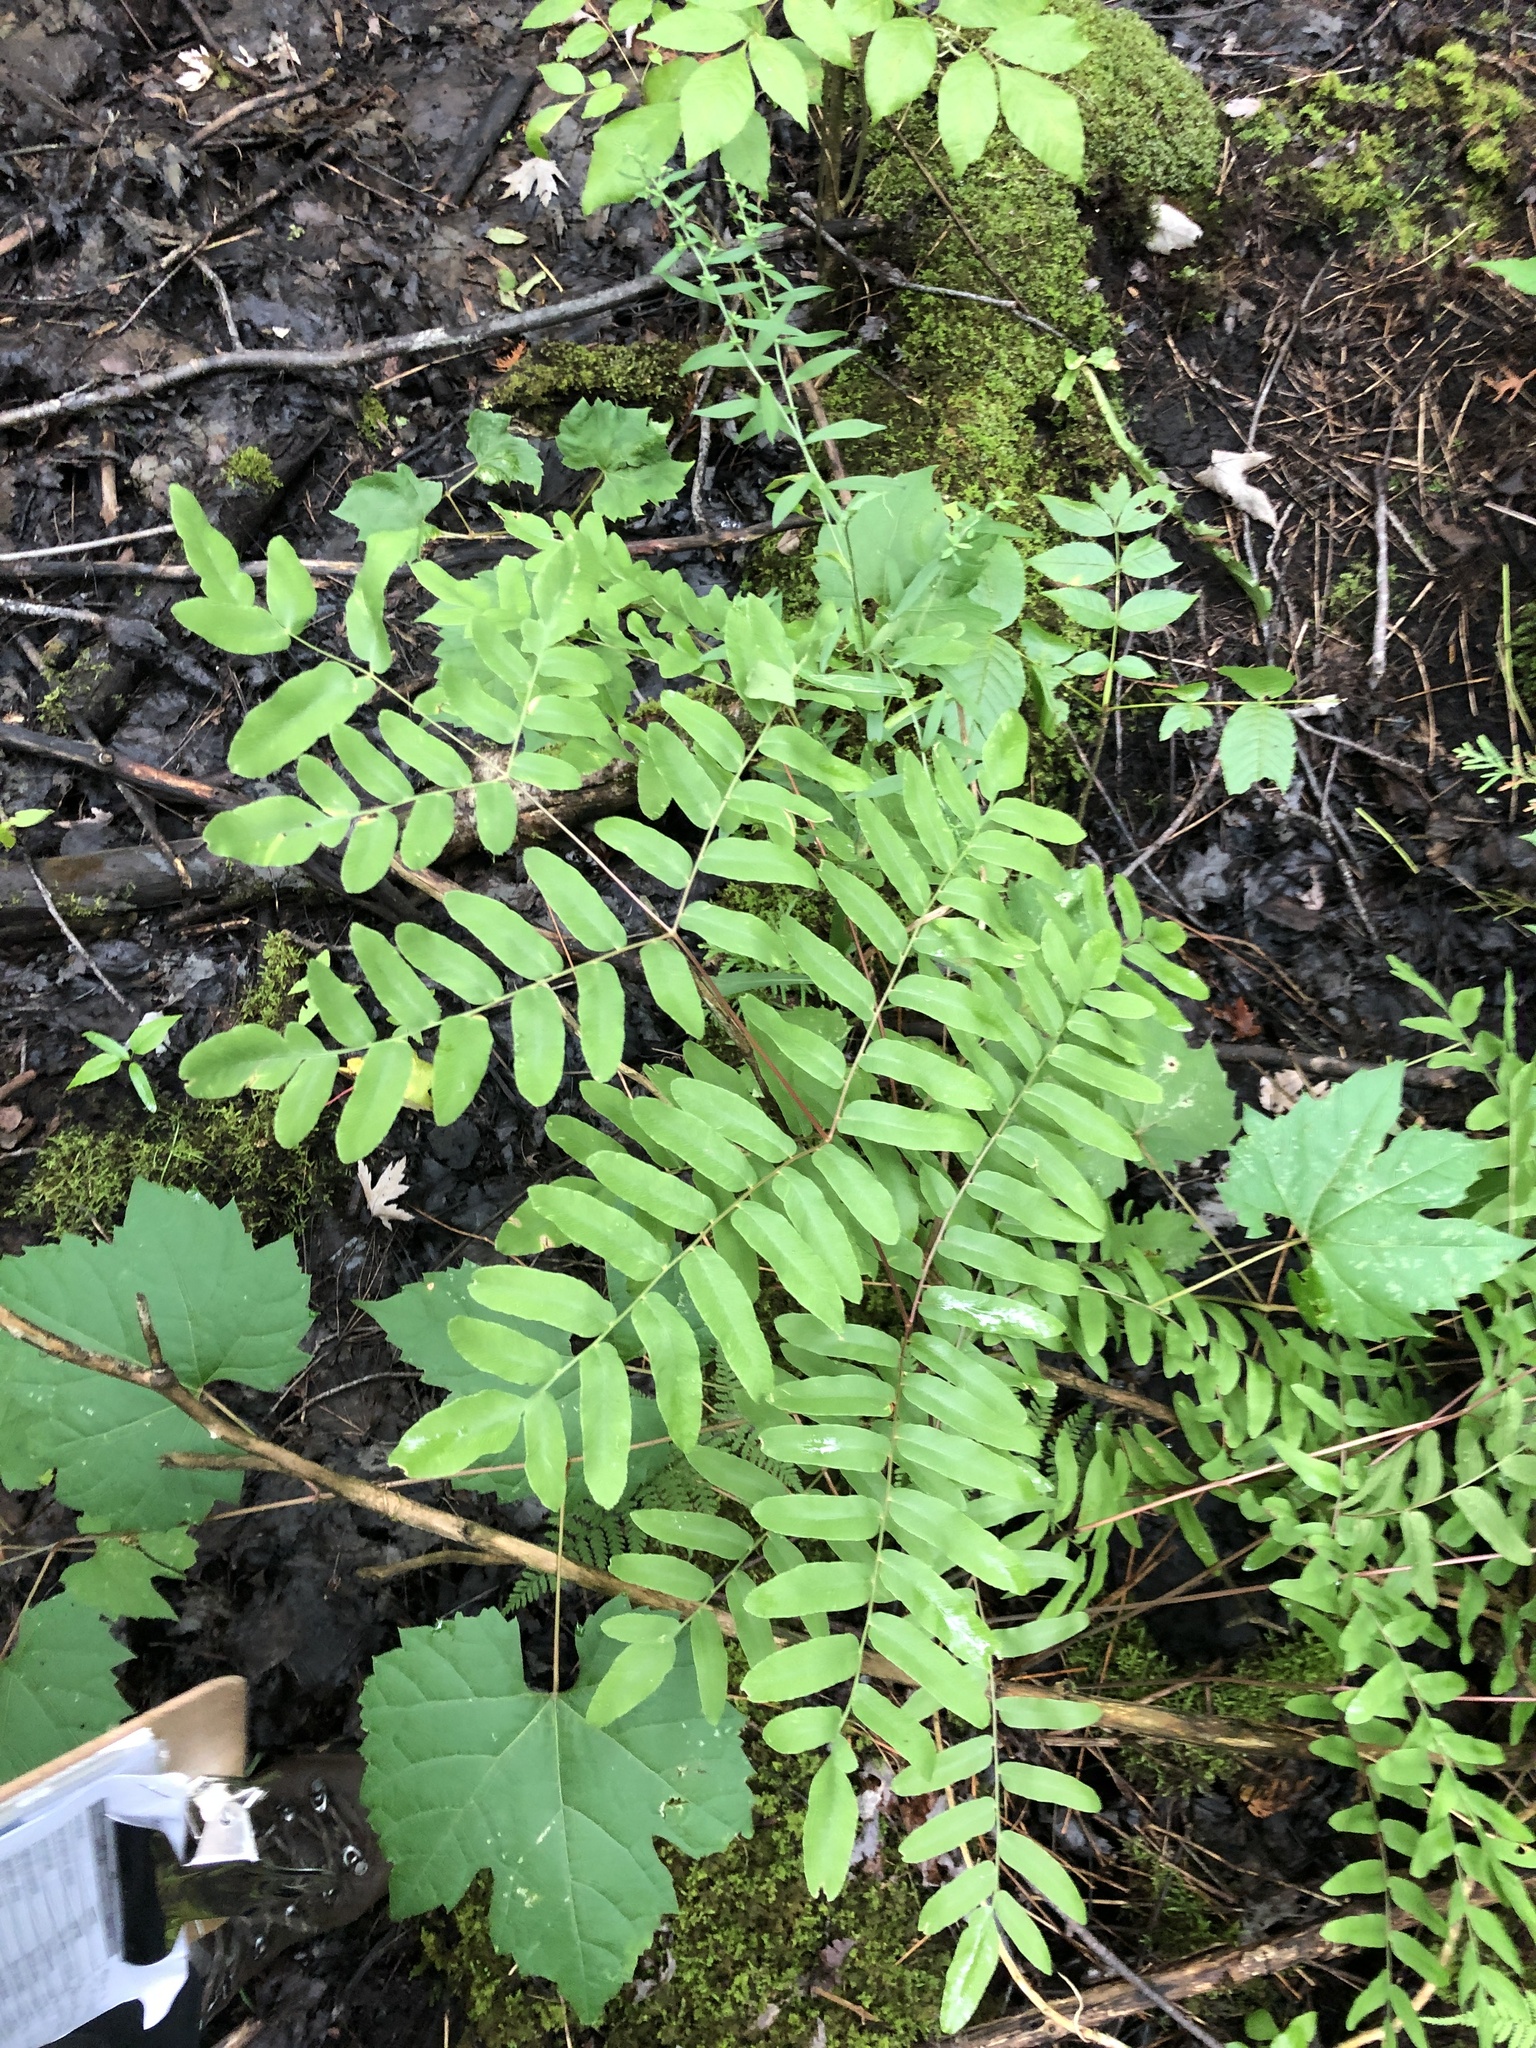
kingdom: Plantae
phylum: Tracheophyta
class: Polypodiopsida
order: Osmundales
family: Osmundaceae
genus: Osmunda
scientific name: Osmunda spectabilis
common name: American royal fern
